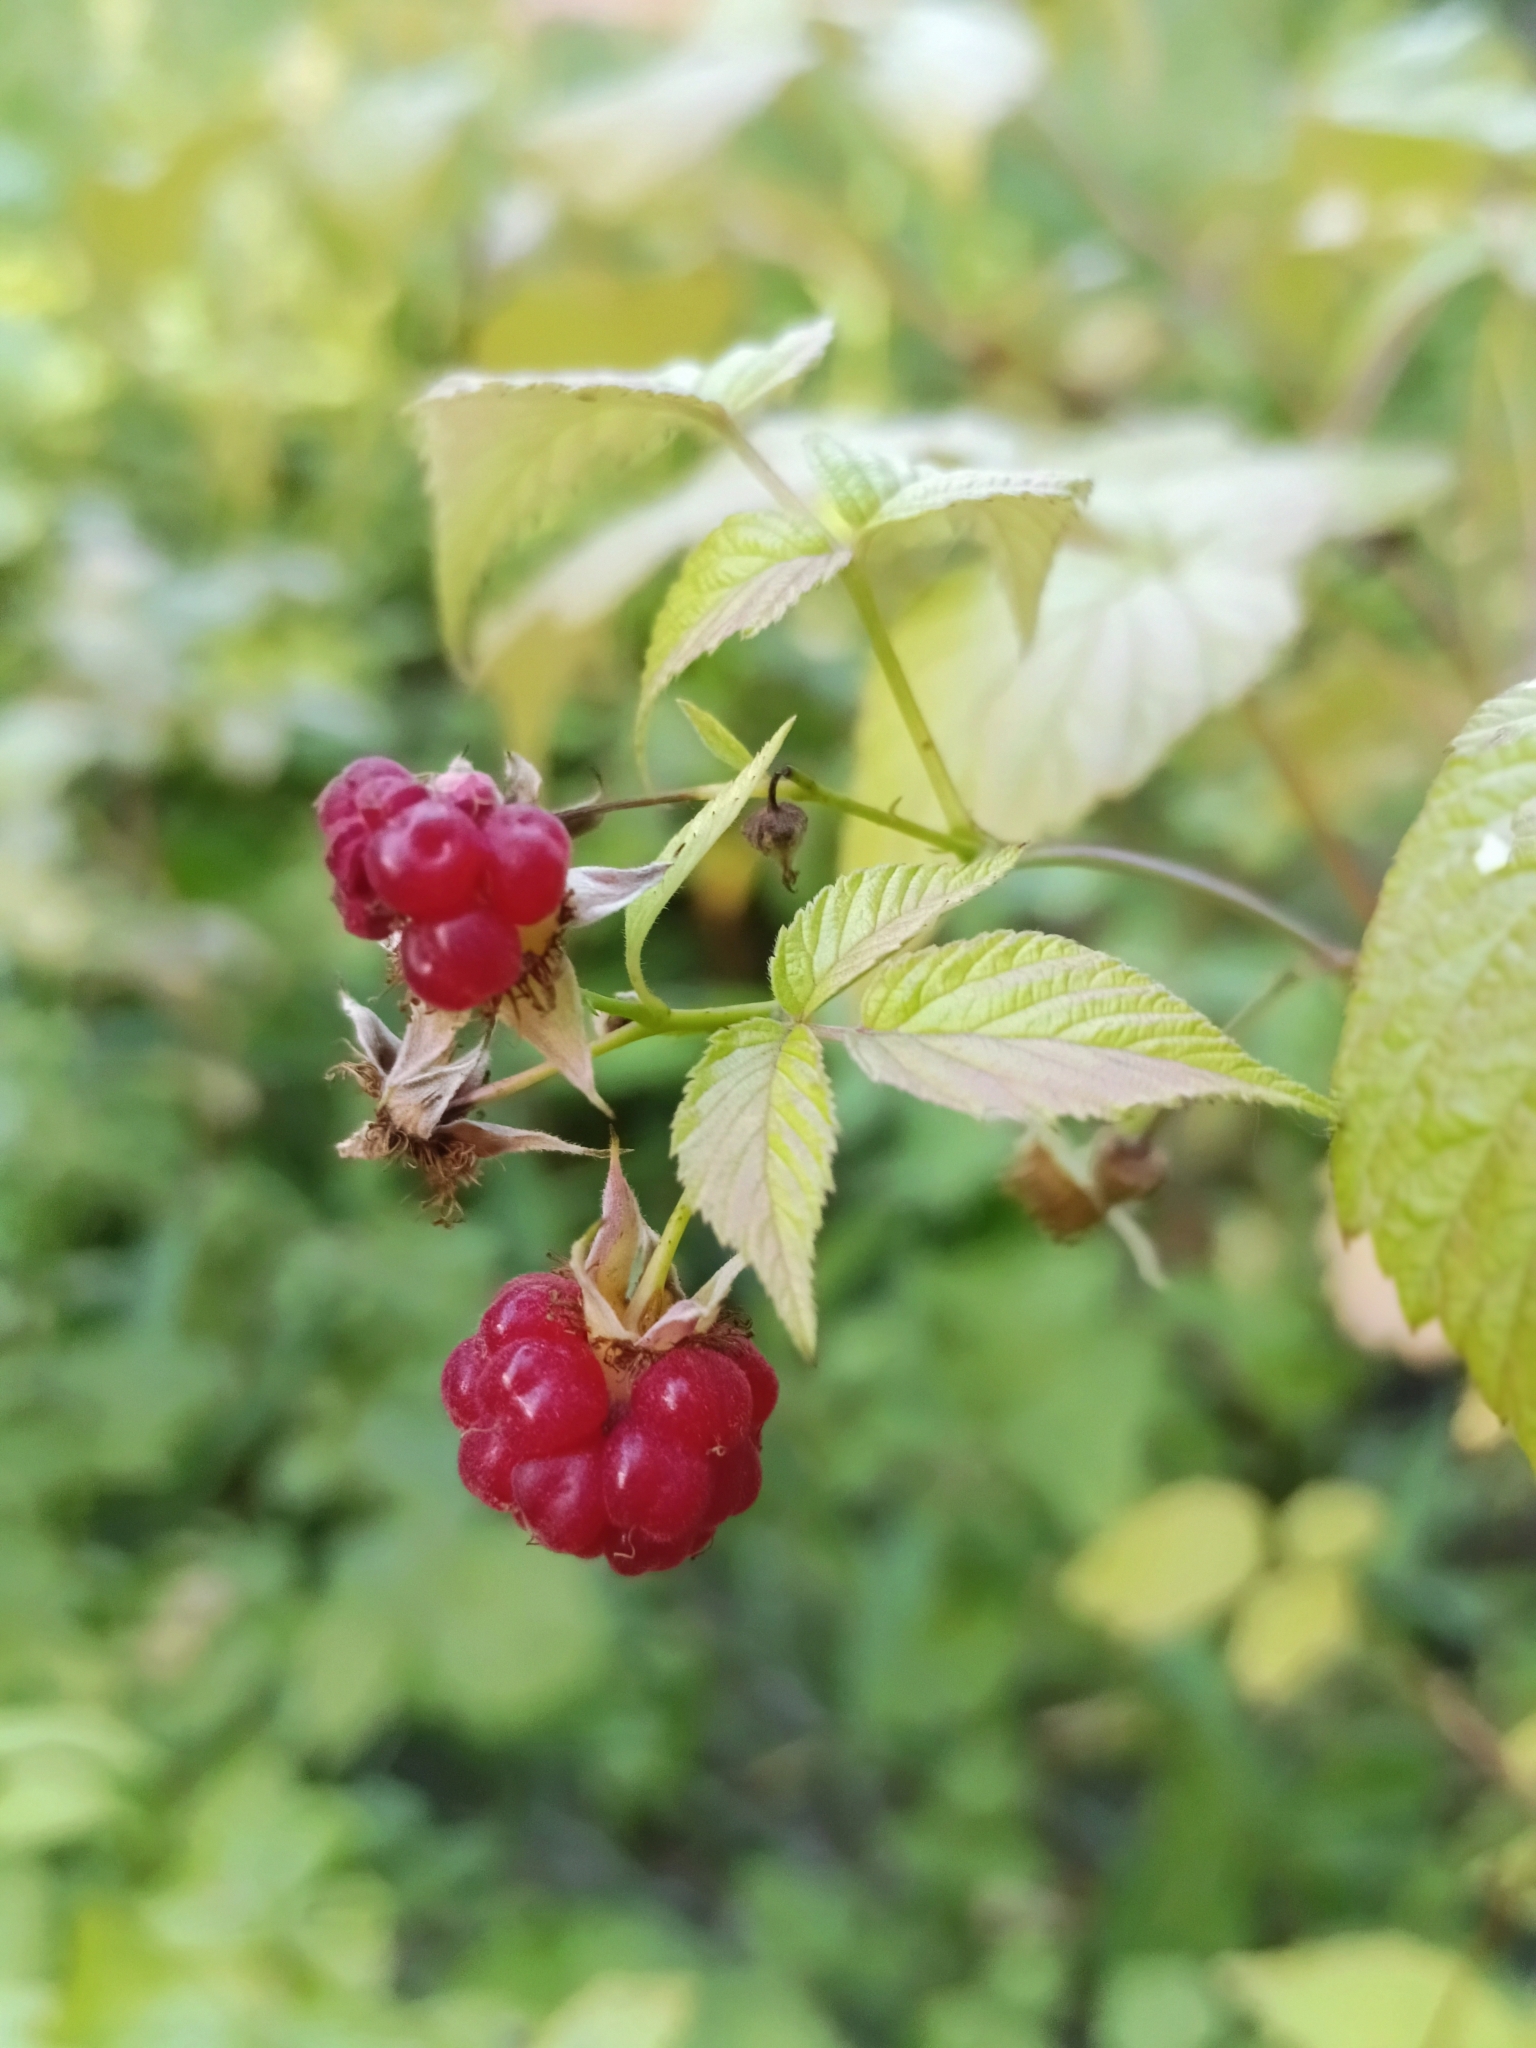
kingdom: Plantae
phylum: Tracheophyta
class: Magnoliopsida
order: Rosales
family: Rosaceae
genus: Rubus
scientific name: Rubus idaeus
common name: Raspberry
